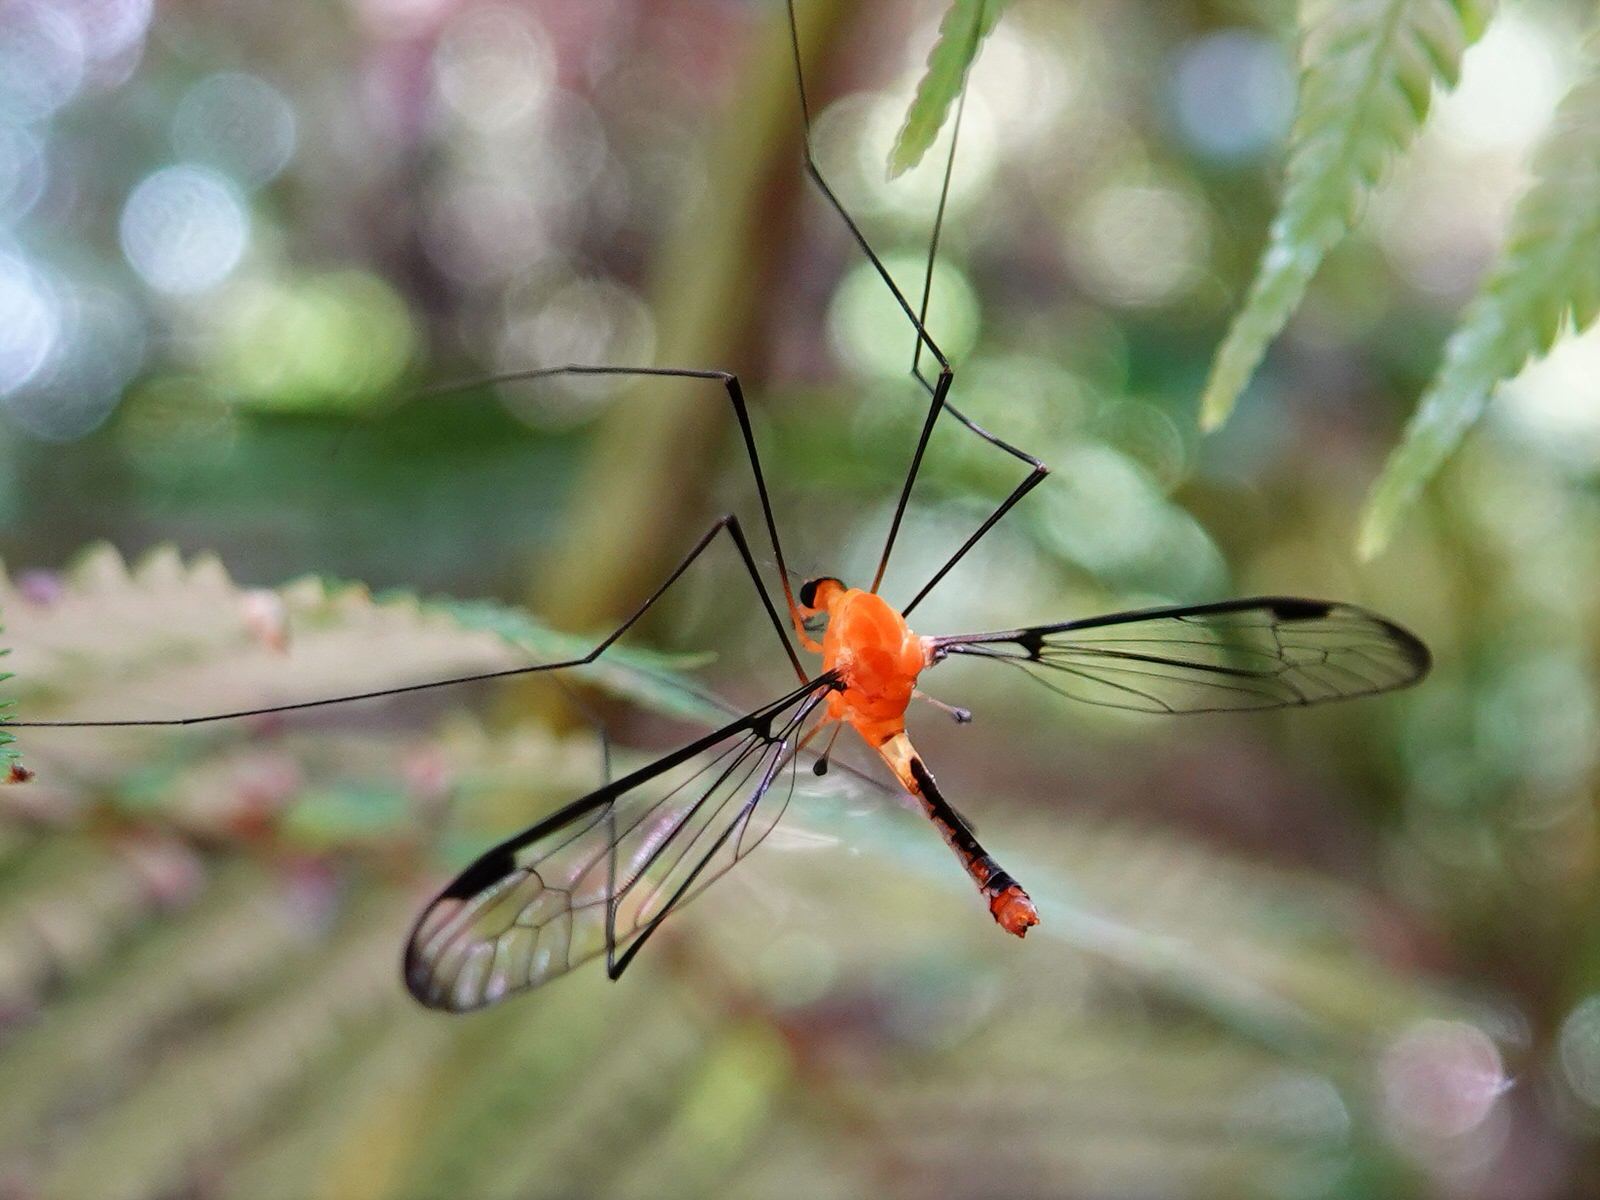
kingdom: Animalia
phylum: Arthropoda
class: Insecta
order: Diptera
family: Tipulidae
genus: Aurotipula
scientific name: Aurotipula
